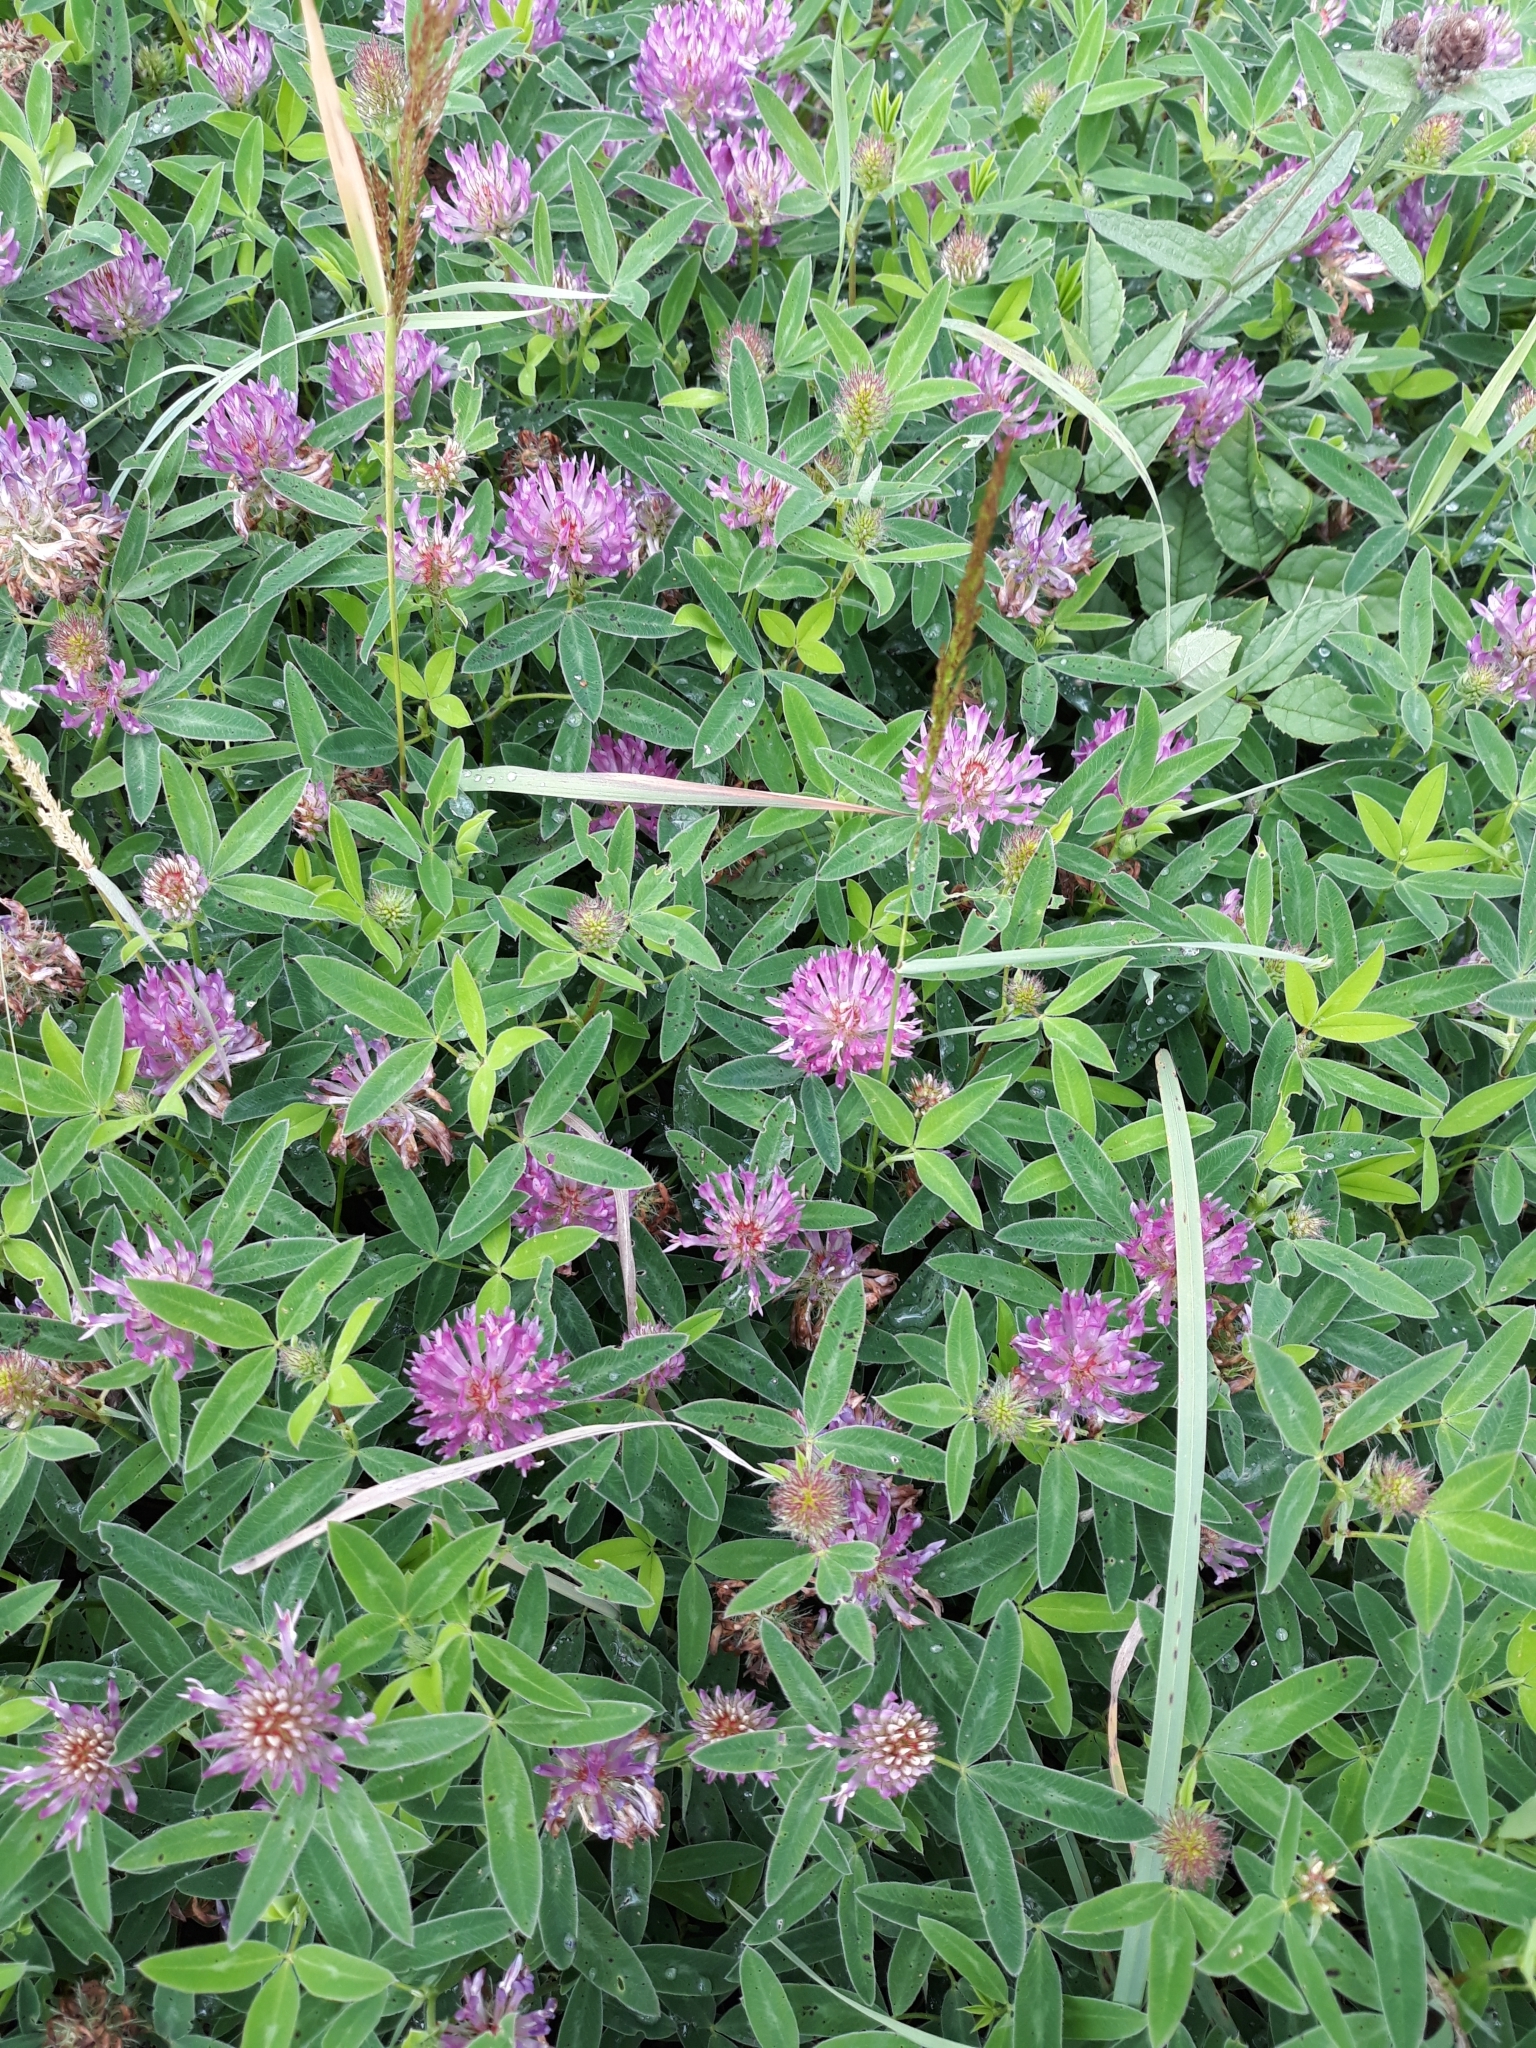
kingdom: Plantae
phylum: Tracheophyta
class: Magnoliopsida
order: Fabales
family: Fabaceae
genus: Trifolium
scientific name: Trifolium medium
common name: Zigzag clover
